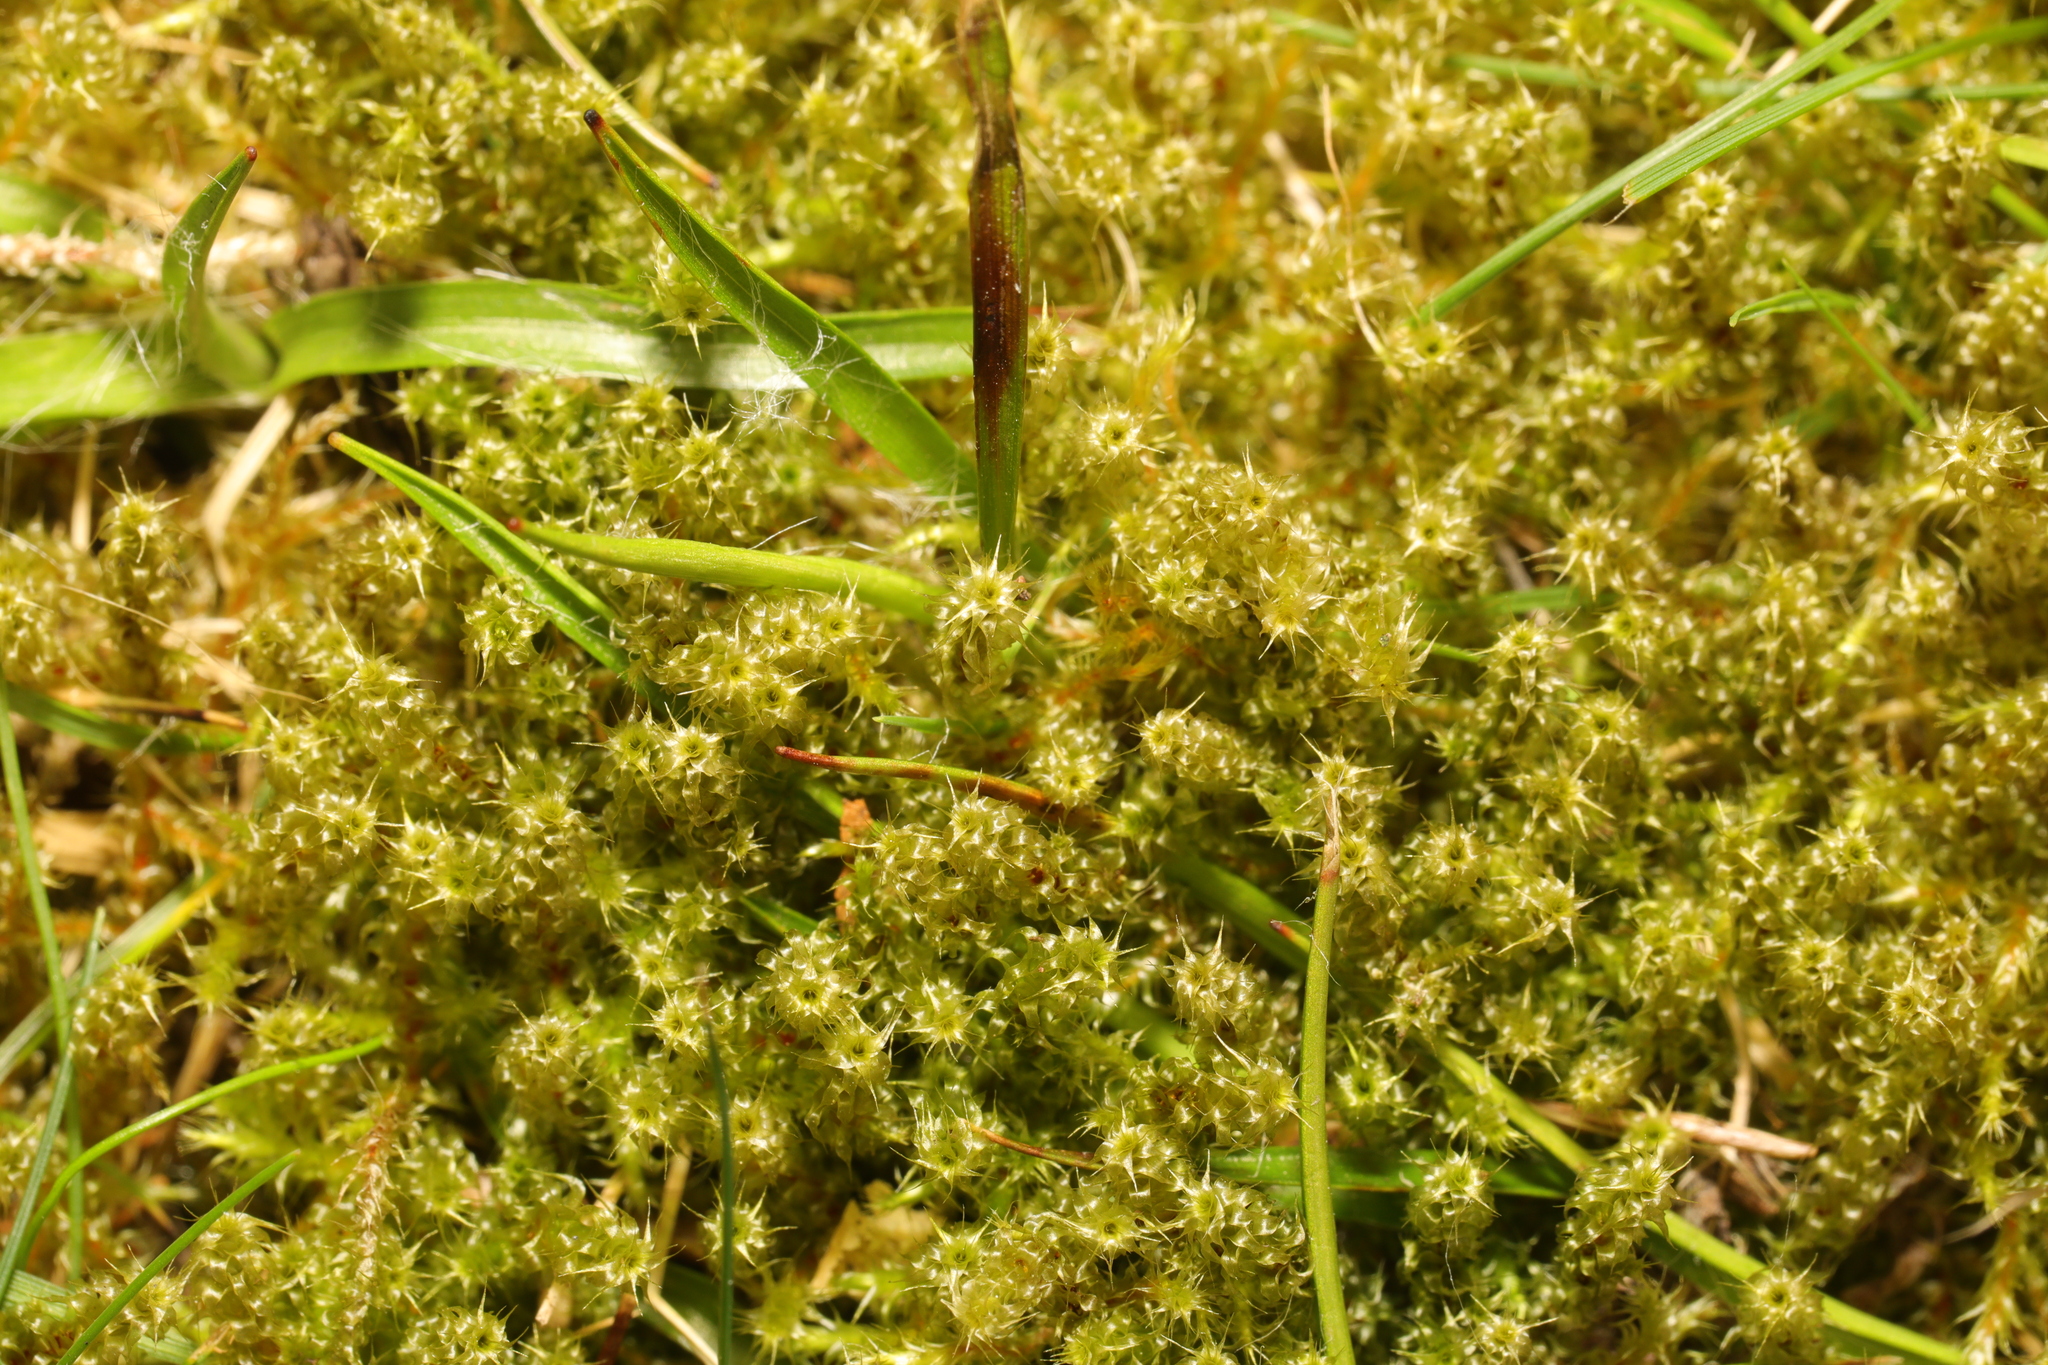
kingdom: Plantae
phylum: Bryophyta
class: Bryopsida
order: Hypnales
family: Hylocomiaceae
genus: Rhytidiadelphus
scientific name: Rhytidiadelphus squarrosus
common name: Springy turf-moss
